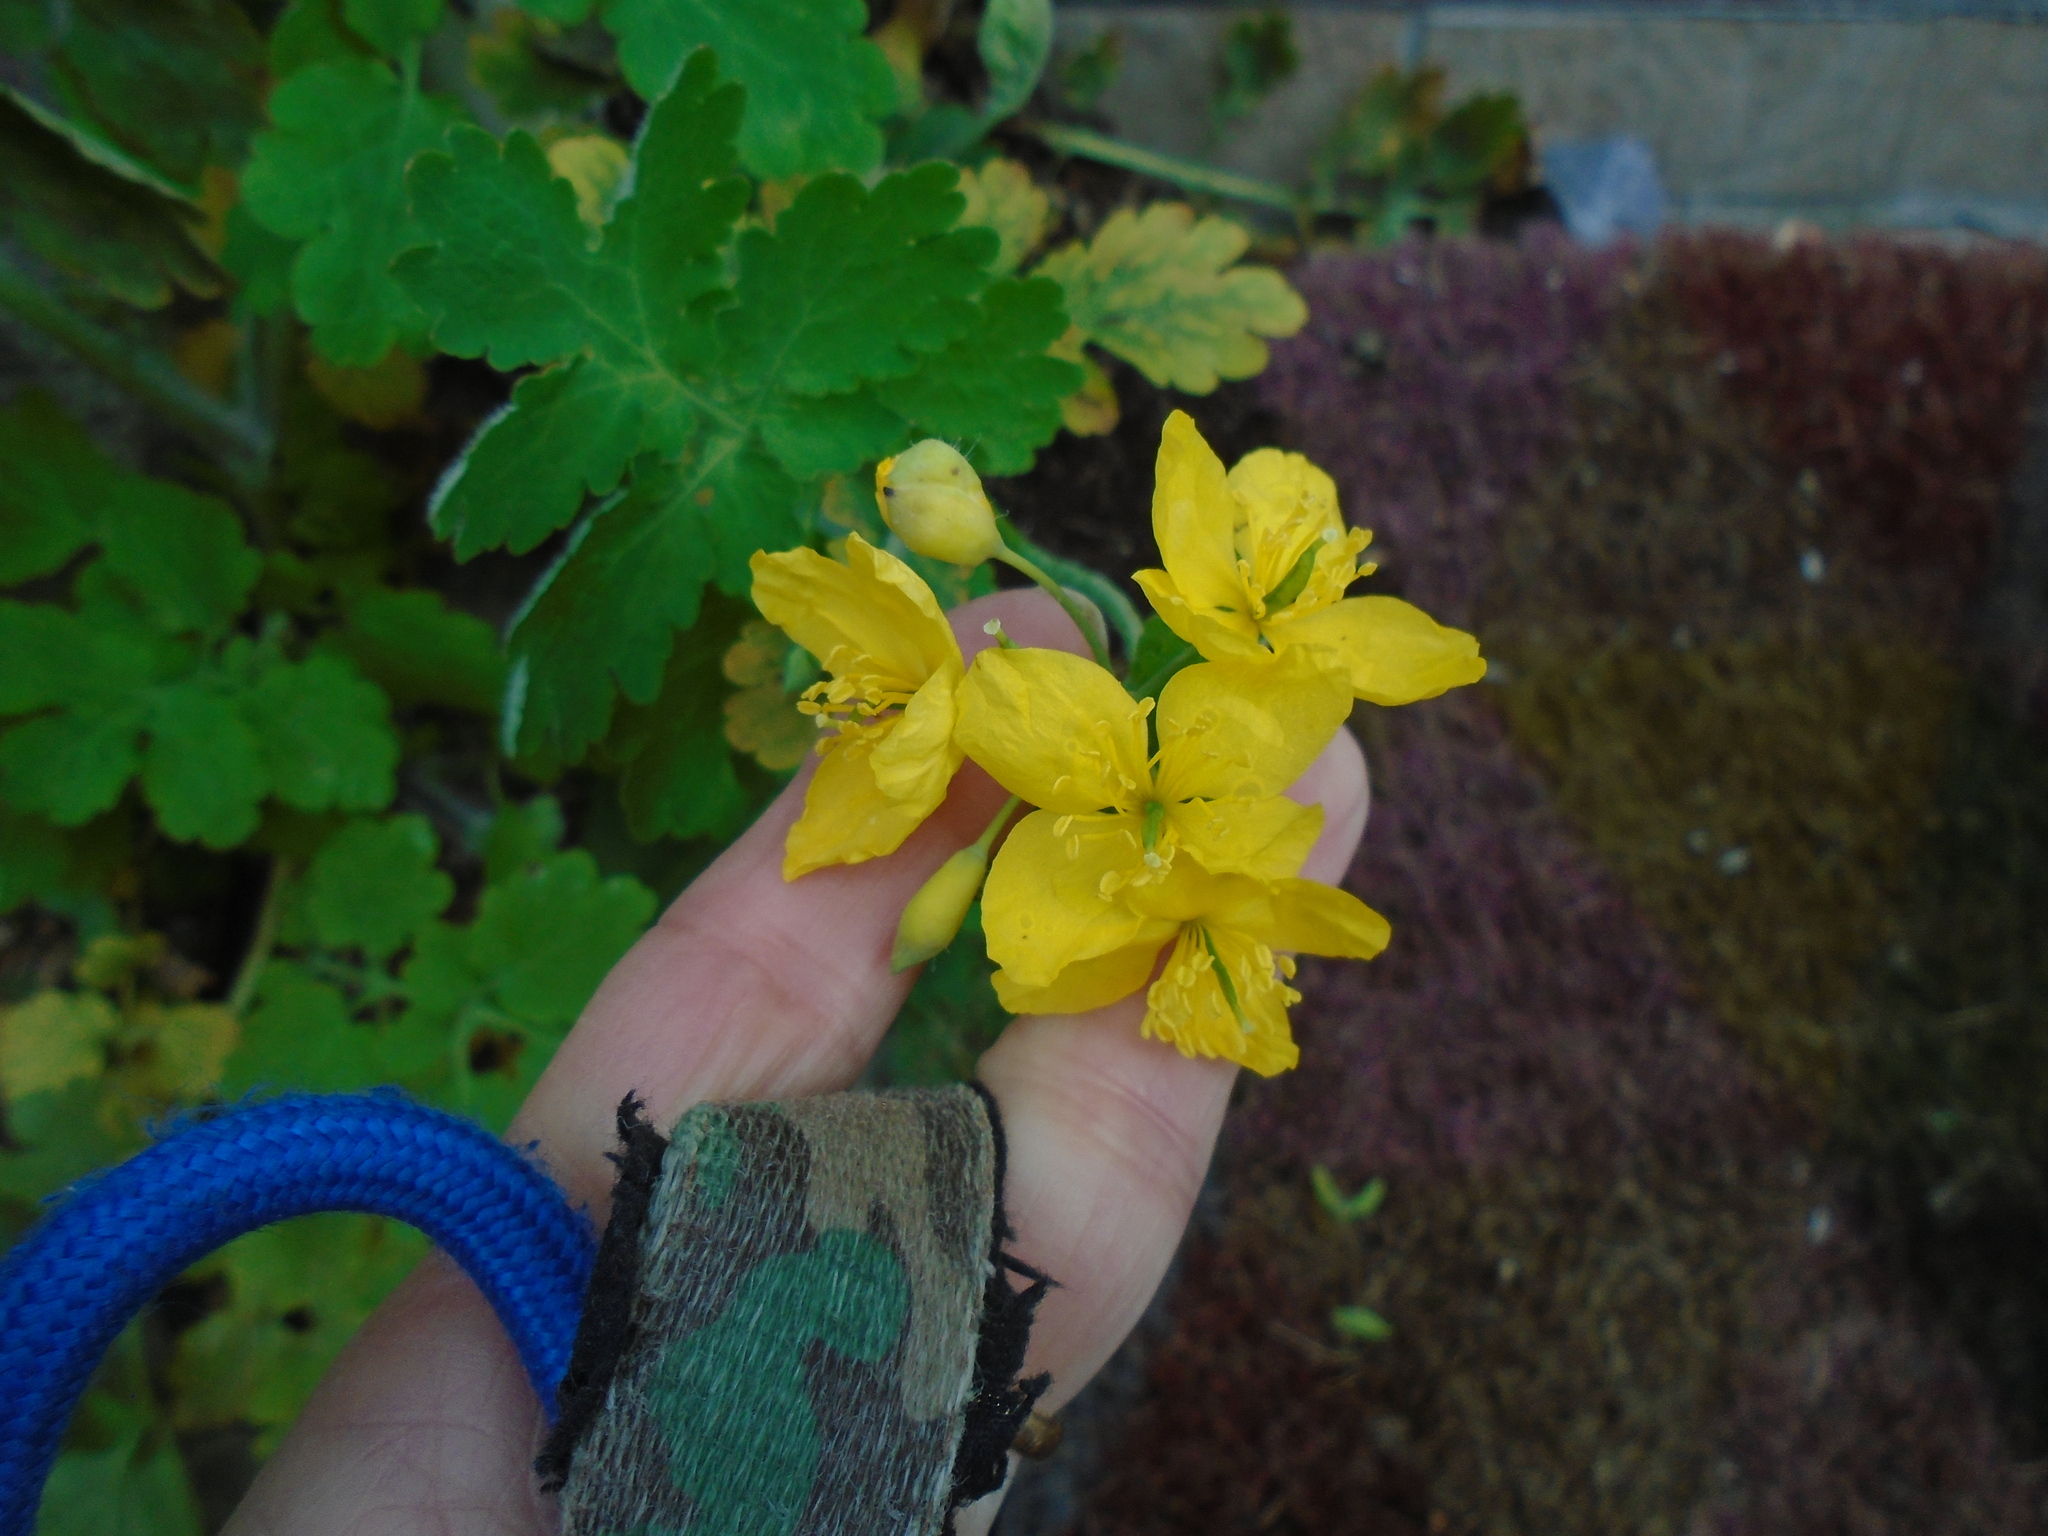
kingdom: Plantae
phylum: Tracheophyta
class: Magnoliopsida
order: Ranunculales
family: Papaveraceae
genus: Chelidonium
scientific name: Chelidonium majus
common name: Greater celandine
